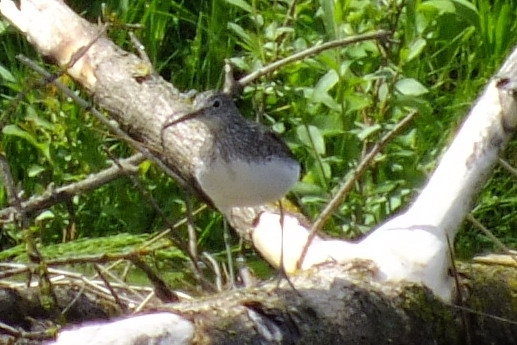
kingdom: Animalia
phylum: Chordata
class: Aves
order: Charadriiformes
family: Scolopacidae
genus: Tringa
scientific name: Tringa ochropus
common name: Green sandpiper
